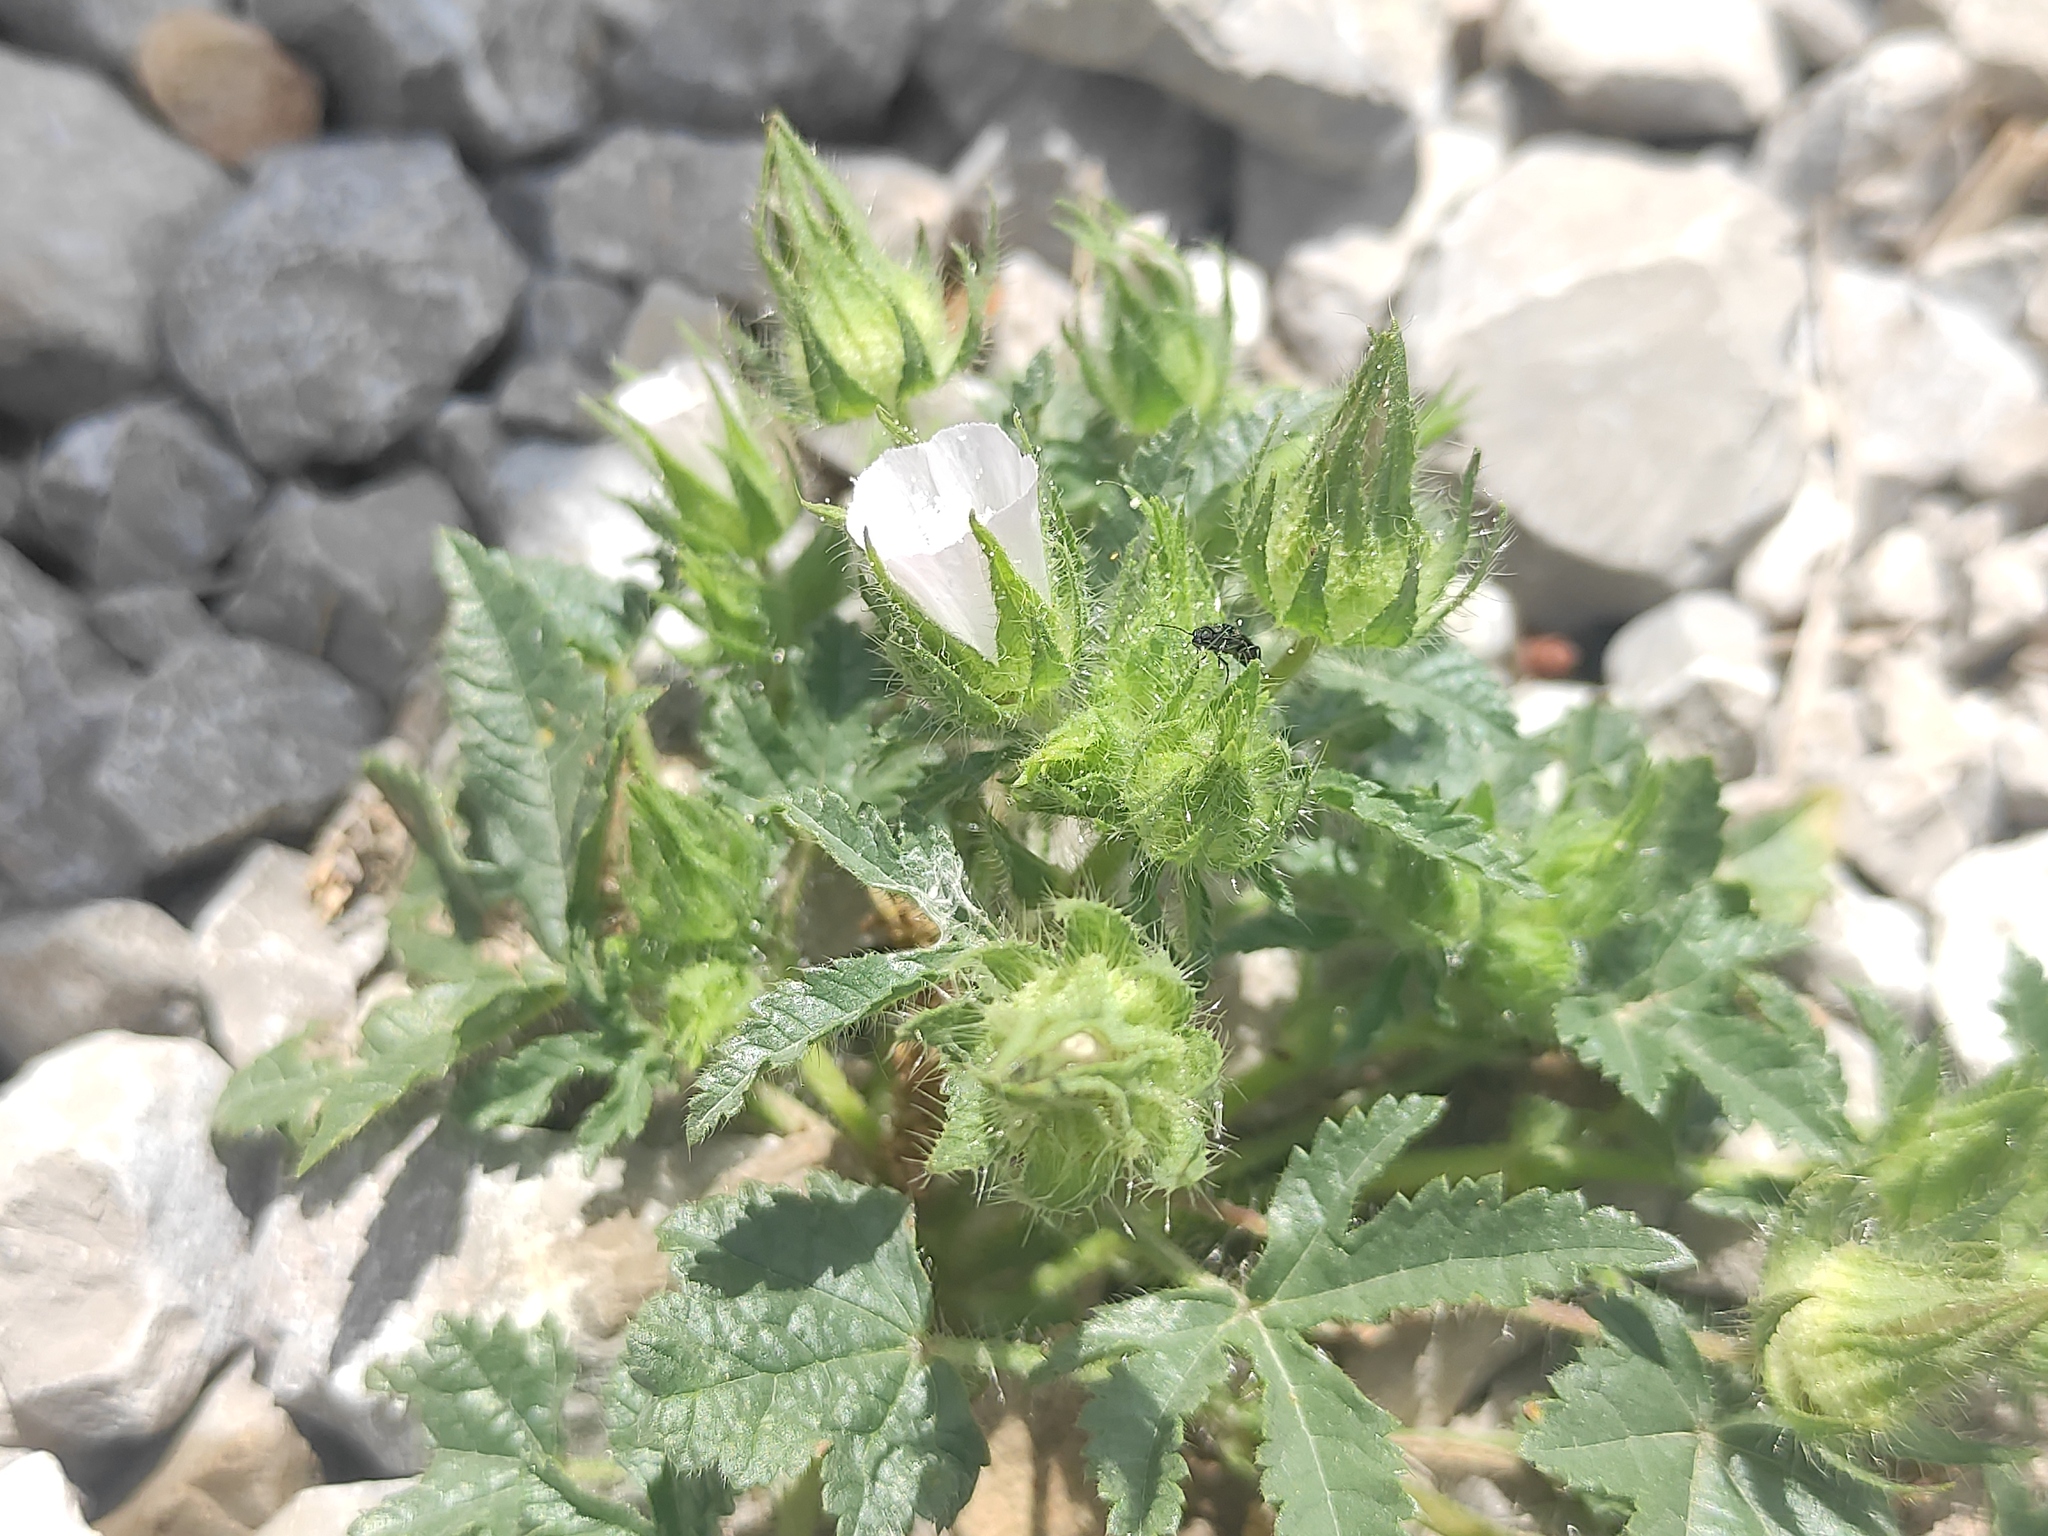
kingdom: Plantae
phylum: Tracheophyta
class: Magnoliopsida
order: Malvales
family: Malvaceae
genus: Althaea
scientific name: Althaea hirsuta
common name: Rough marsh-mallow
